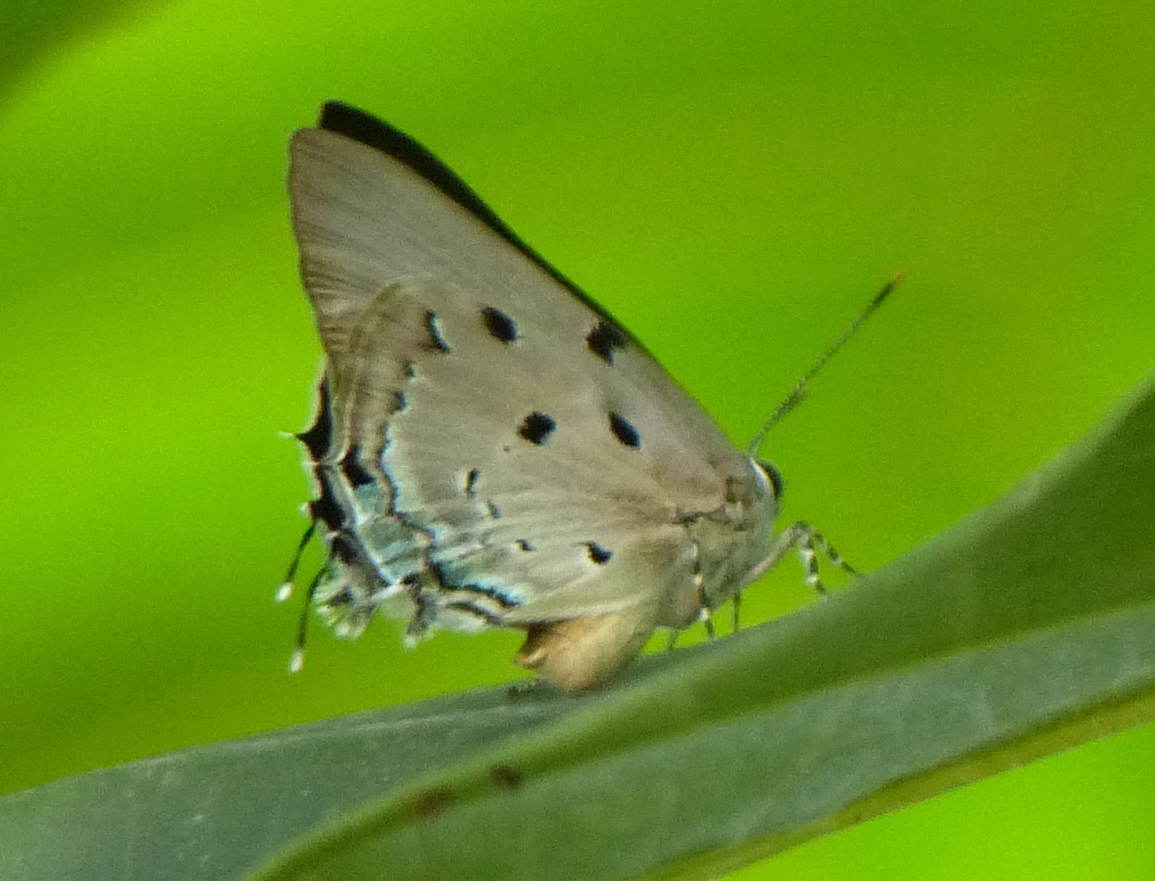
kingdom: Animalia
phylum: Arthropoda
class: Insecta
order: Lepidoptera
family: Lycaenidae
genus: Oenomaus
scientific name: Oenomaus ortygnus
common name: Aquamarine hairstreak
